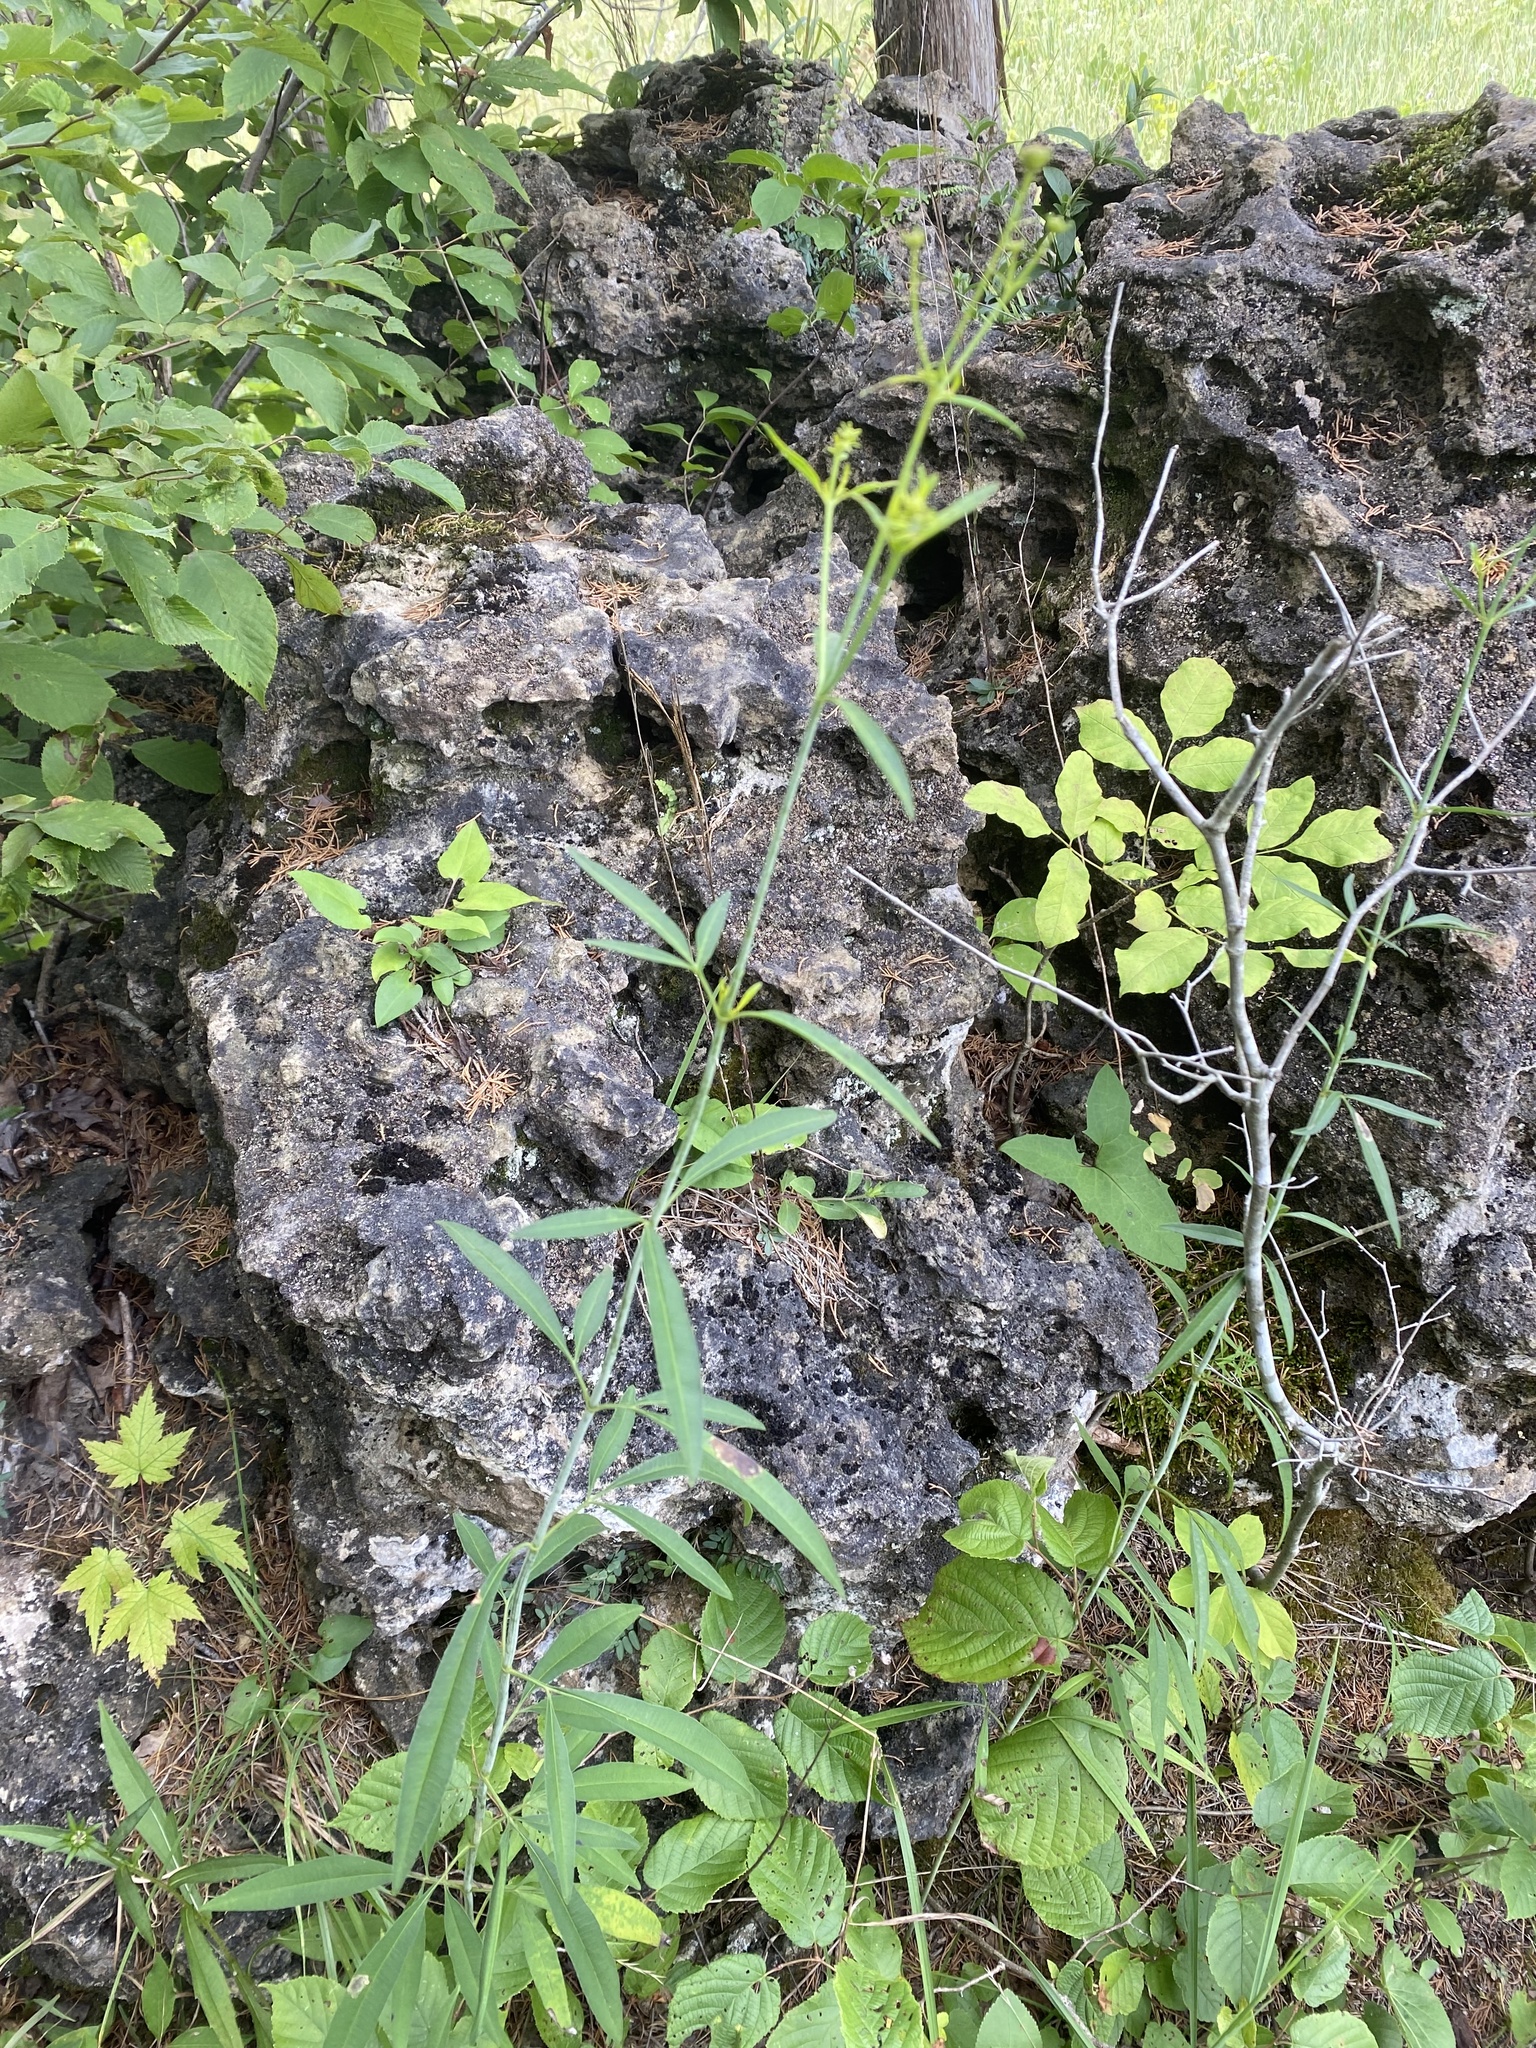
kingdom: Plantae
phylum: Tracheophyta
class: Magnoliopsida
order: Asterales
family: Asteraceae
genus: Coreopsis
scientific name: Coreopsis tripteris
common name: Tall coreopsis
